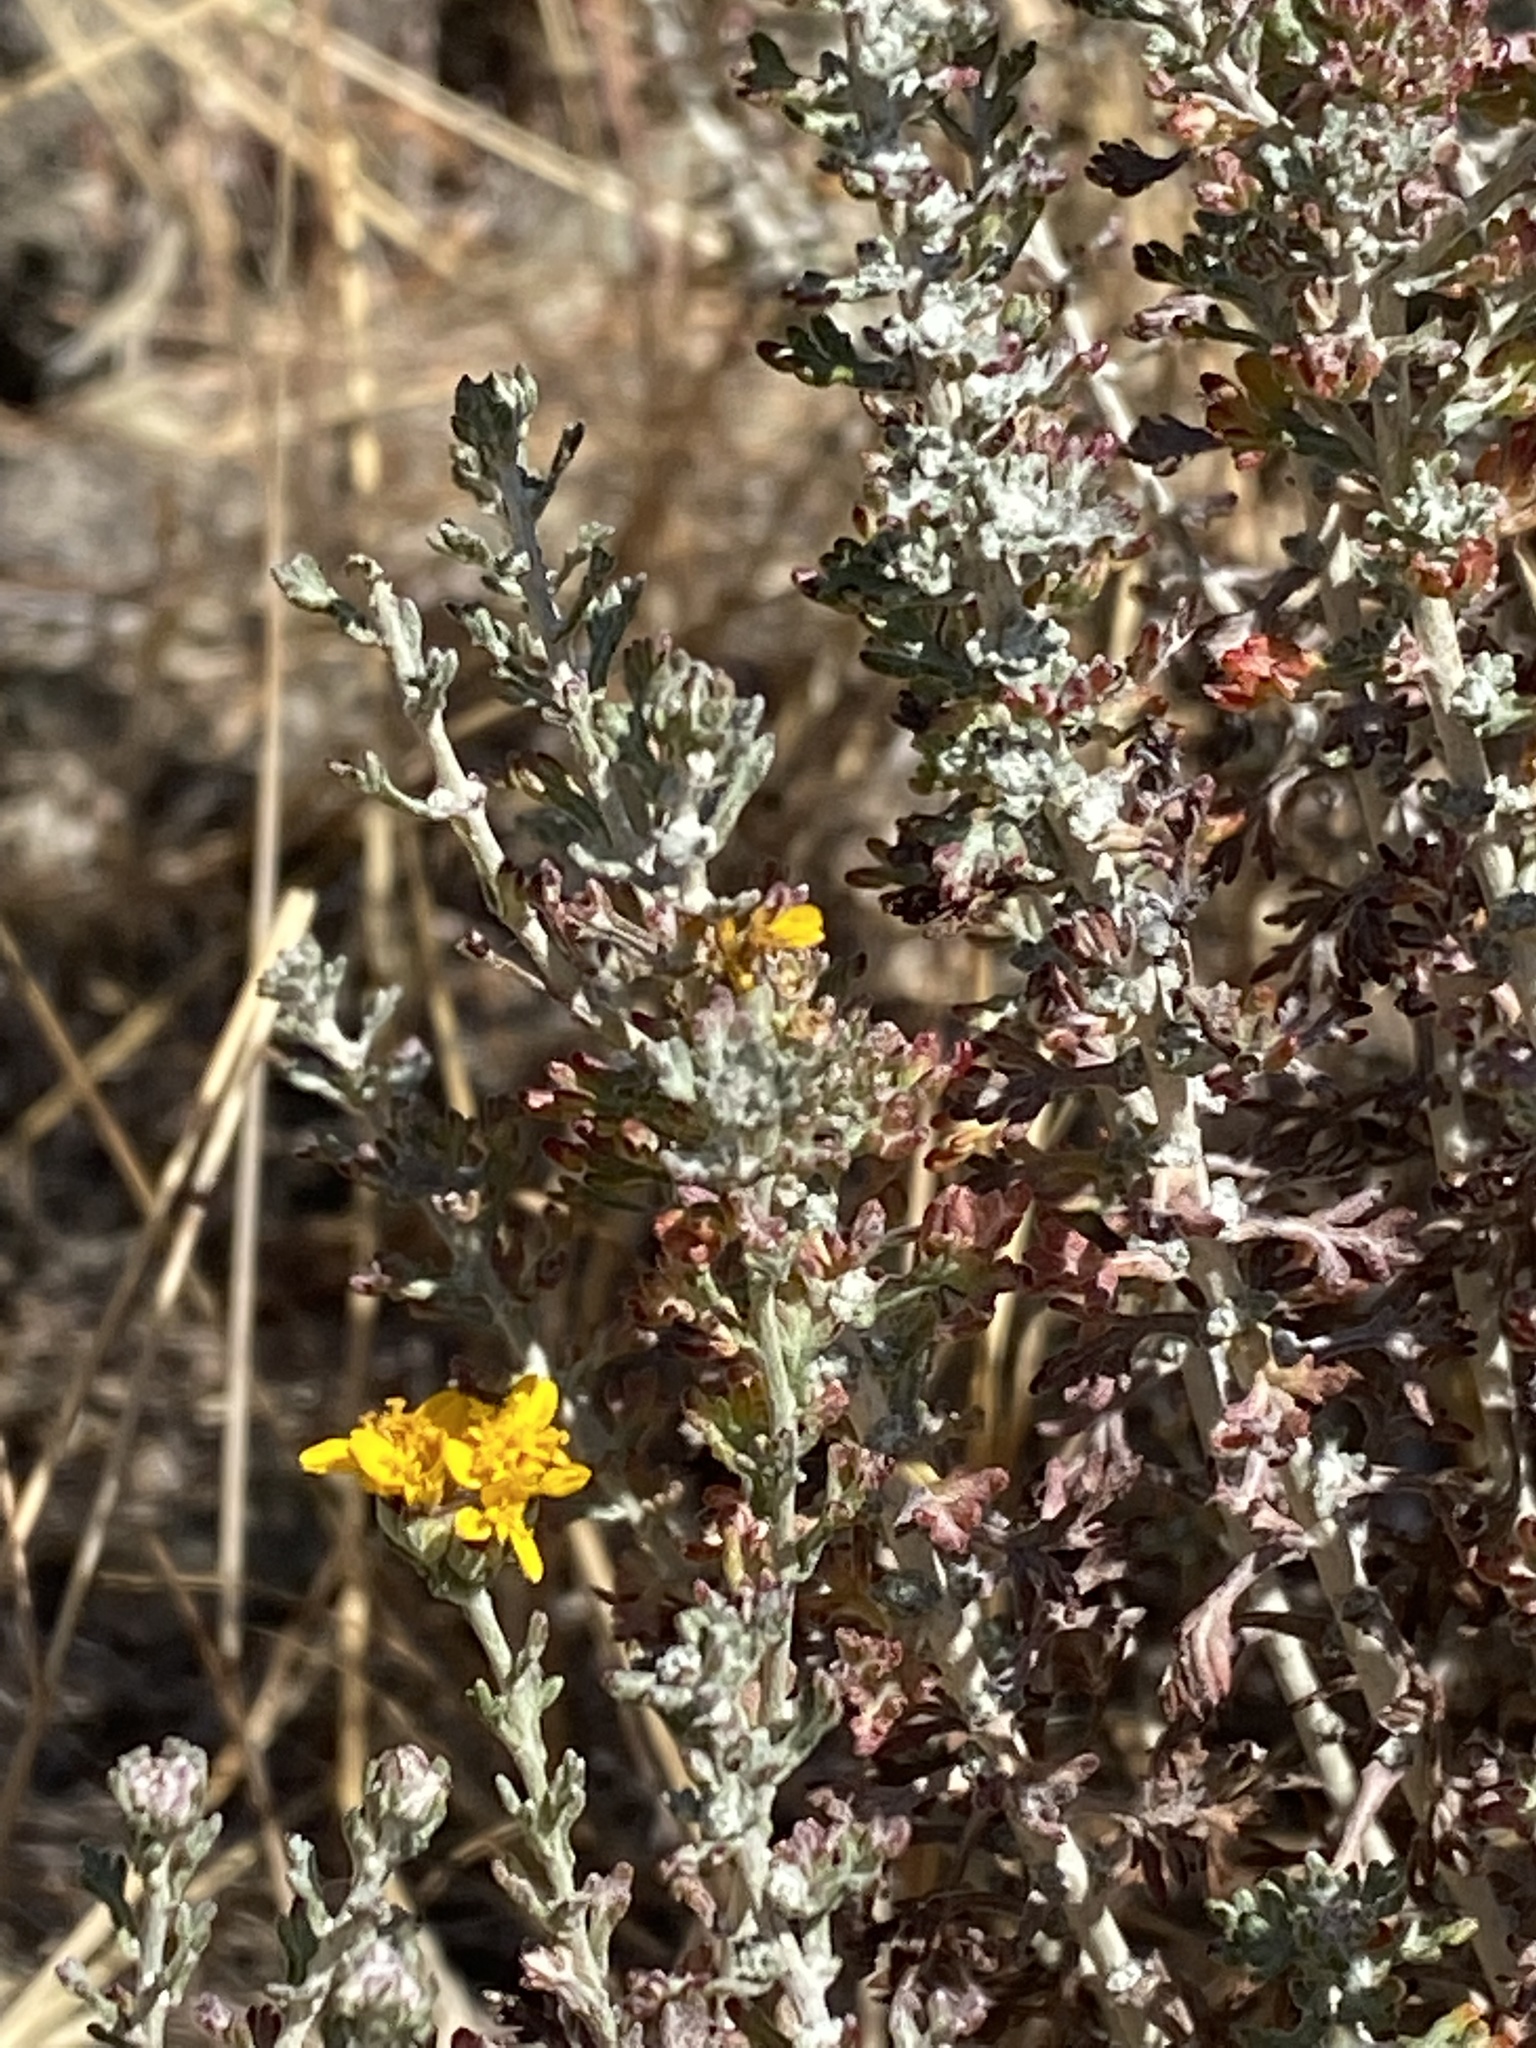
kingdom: Plantae
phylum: Tracheophyta
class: Magnoliopsida
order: Asterales
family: Asteraceae
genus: Eriophyllum
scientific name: Eriophyllum confertiflorum
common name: Golden-yarrow
